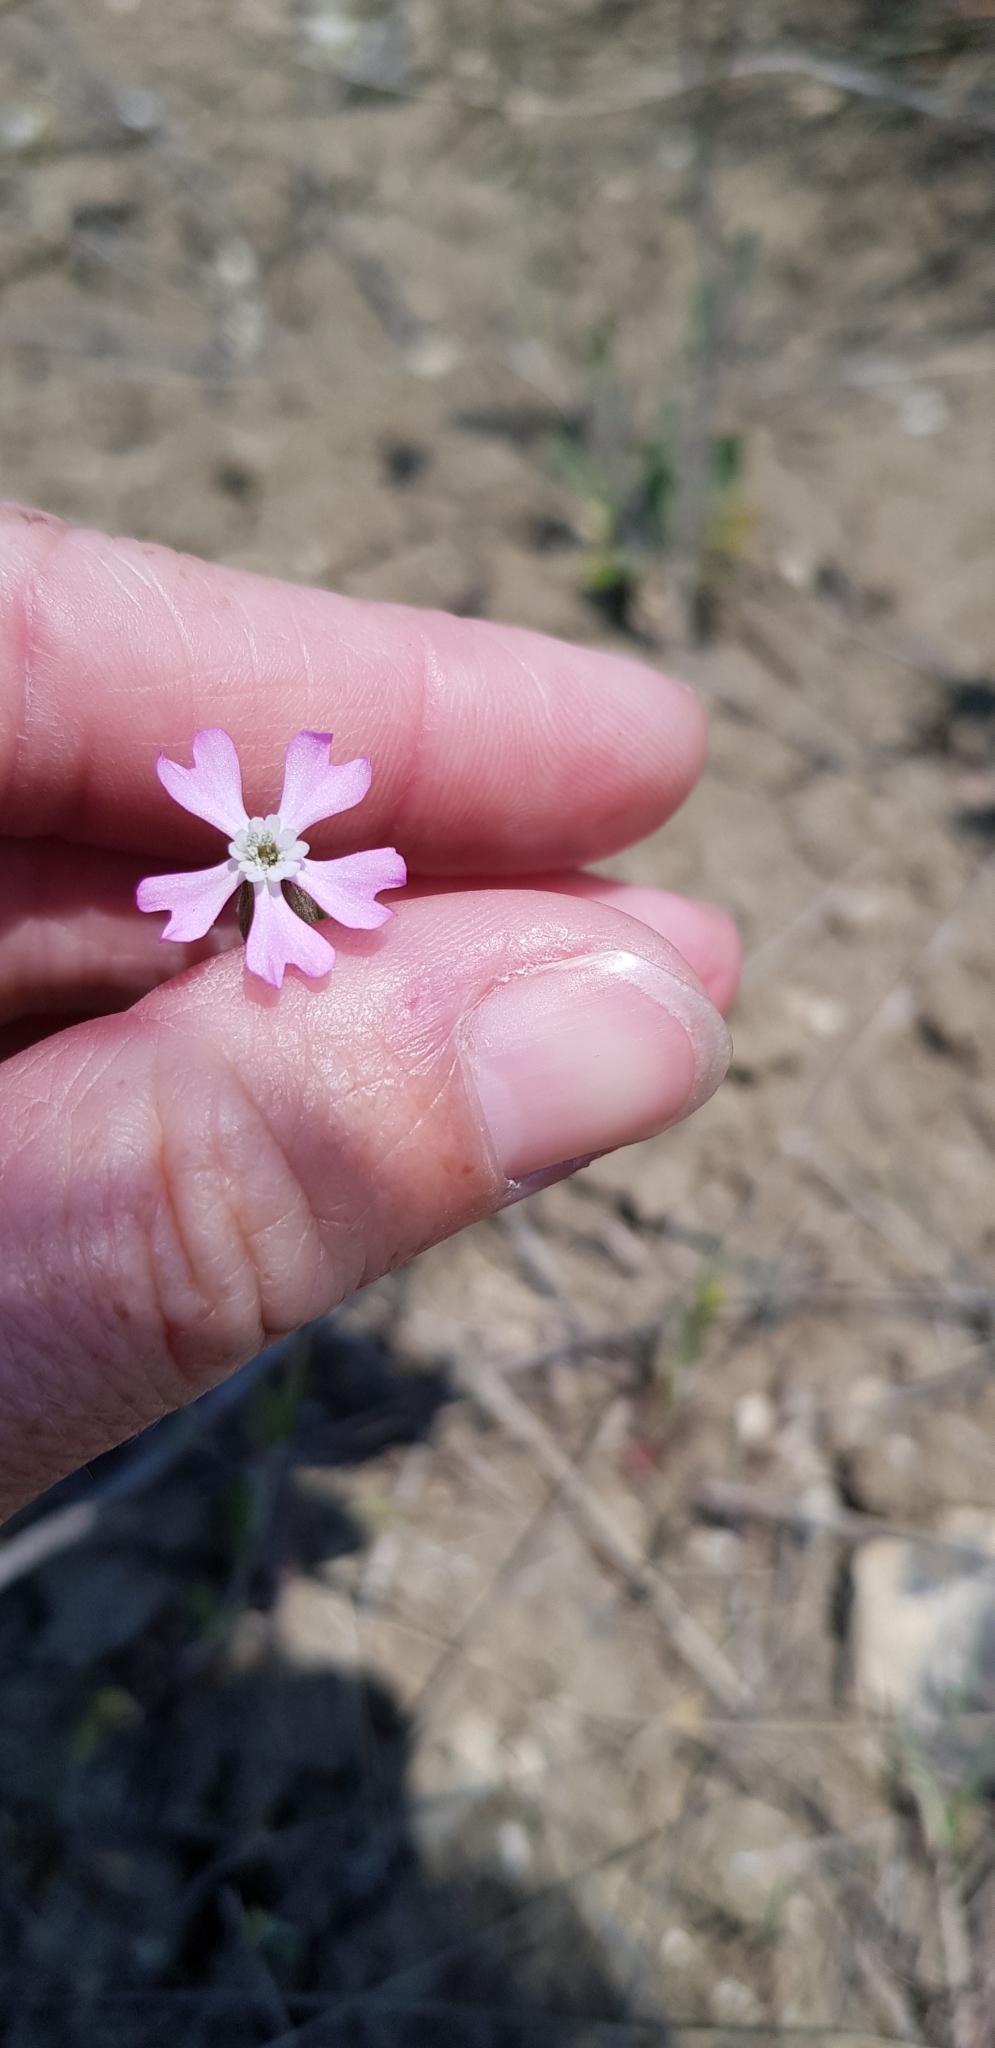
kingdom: Plantae
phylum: Tracheophyta
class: Magnoliopsida
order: Caryophyllales
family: Caryophyllaceae
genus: Silene
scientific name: Silene conica
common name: Sand catchfly
